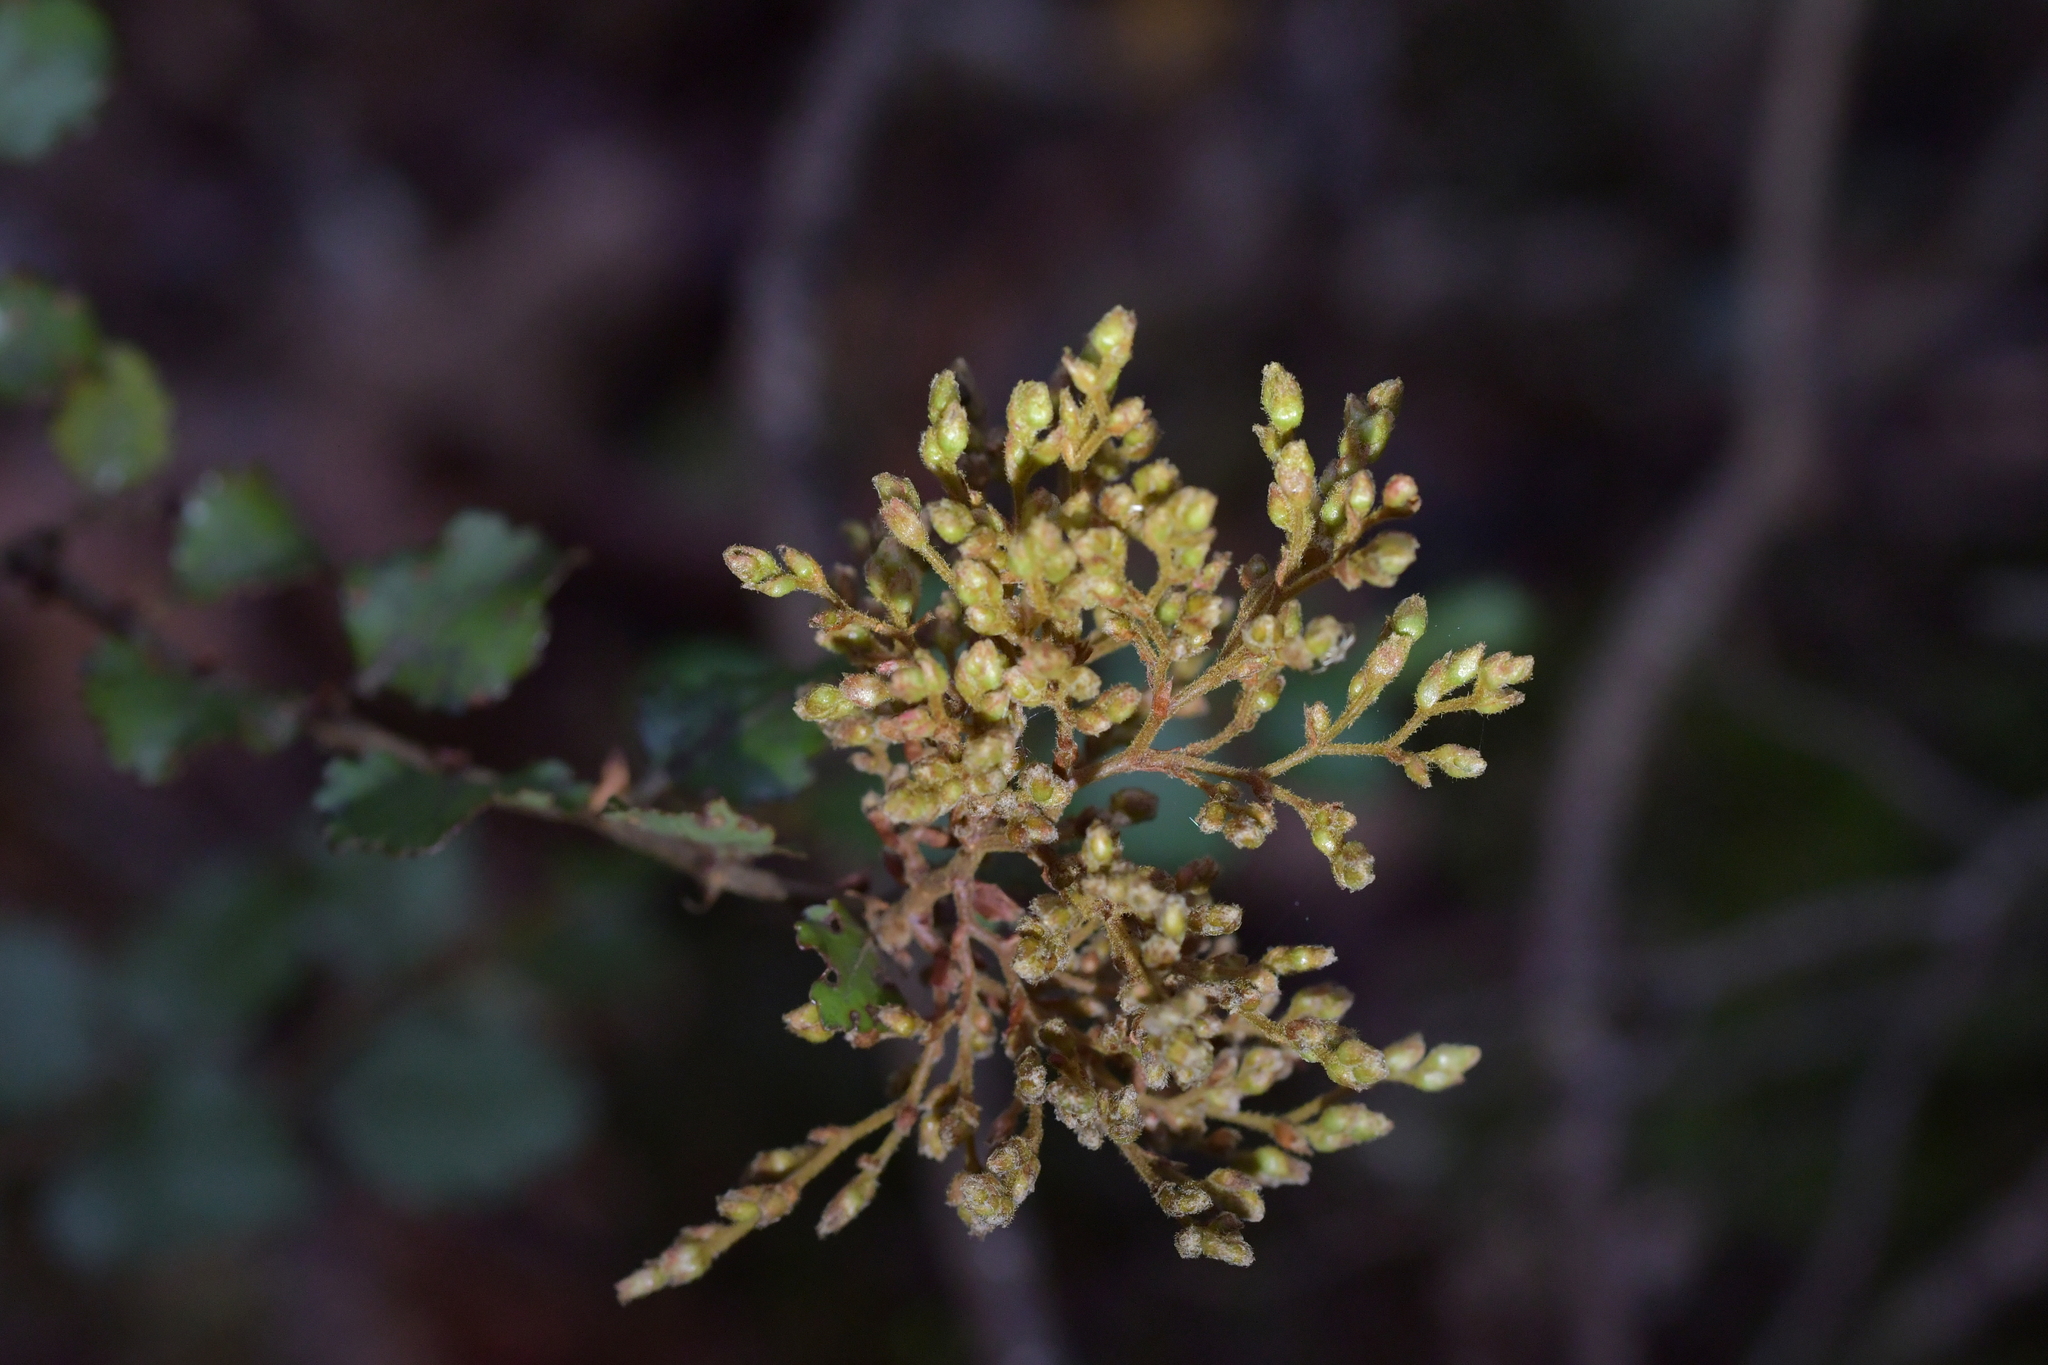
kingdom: Plantae
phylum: Tracheophyta
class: Magnoliopsida
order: Fagales
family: Nothofagaceae
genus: Nothofagus
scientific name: Nothofagus menziesii
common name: Silver beech
